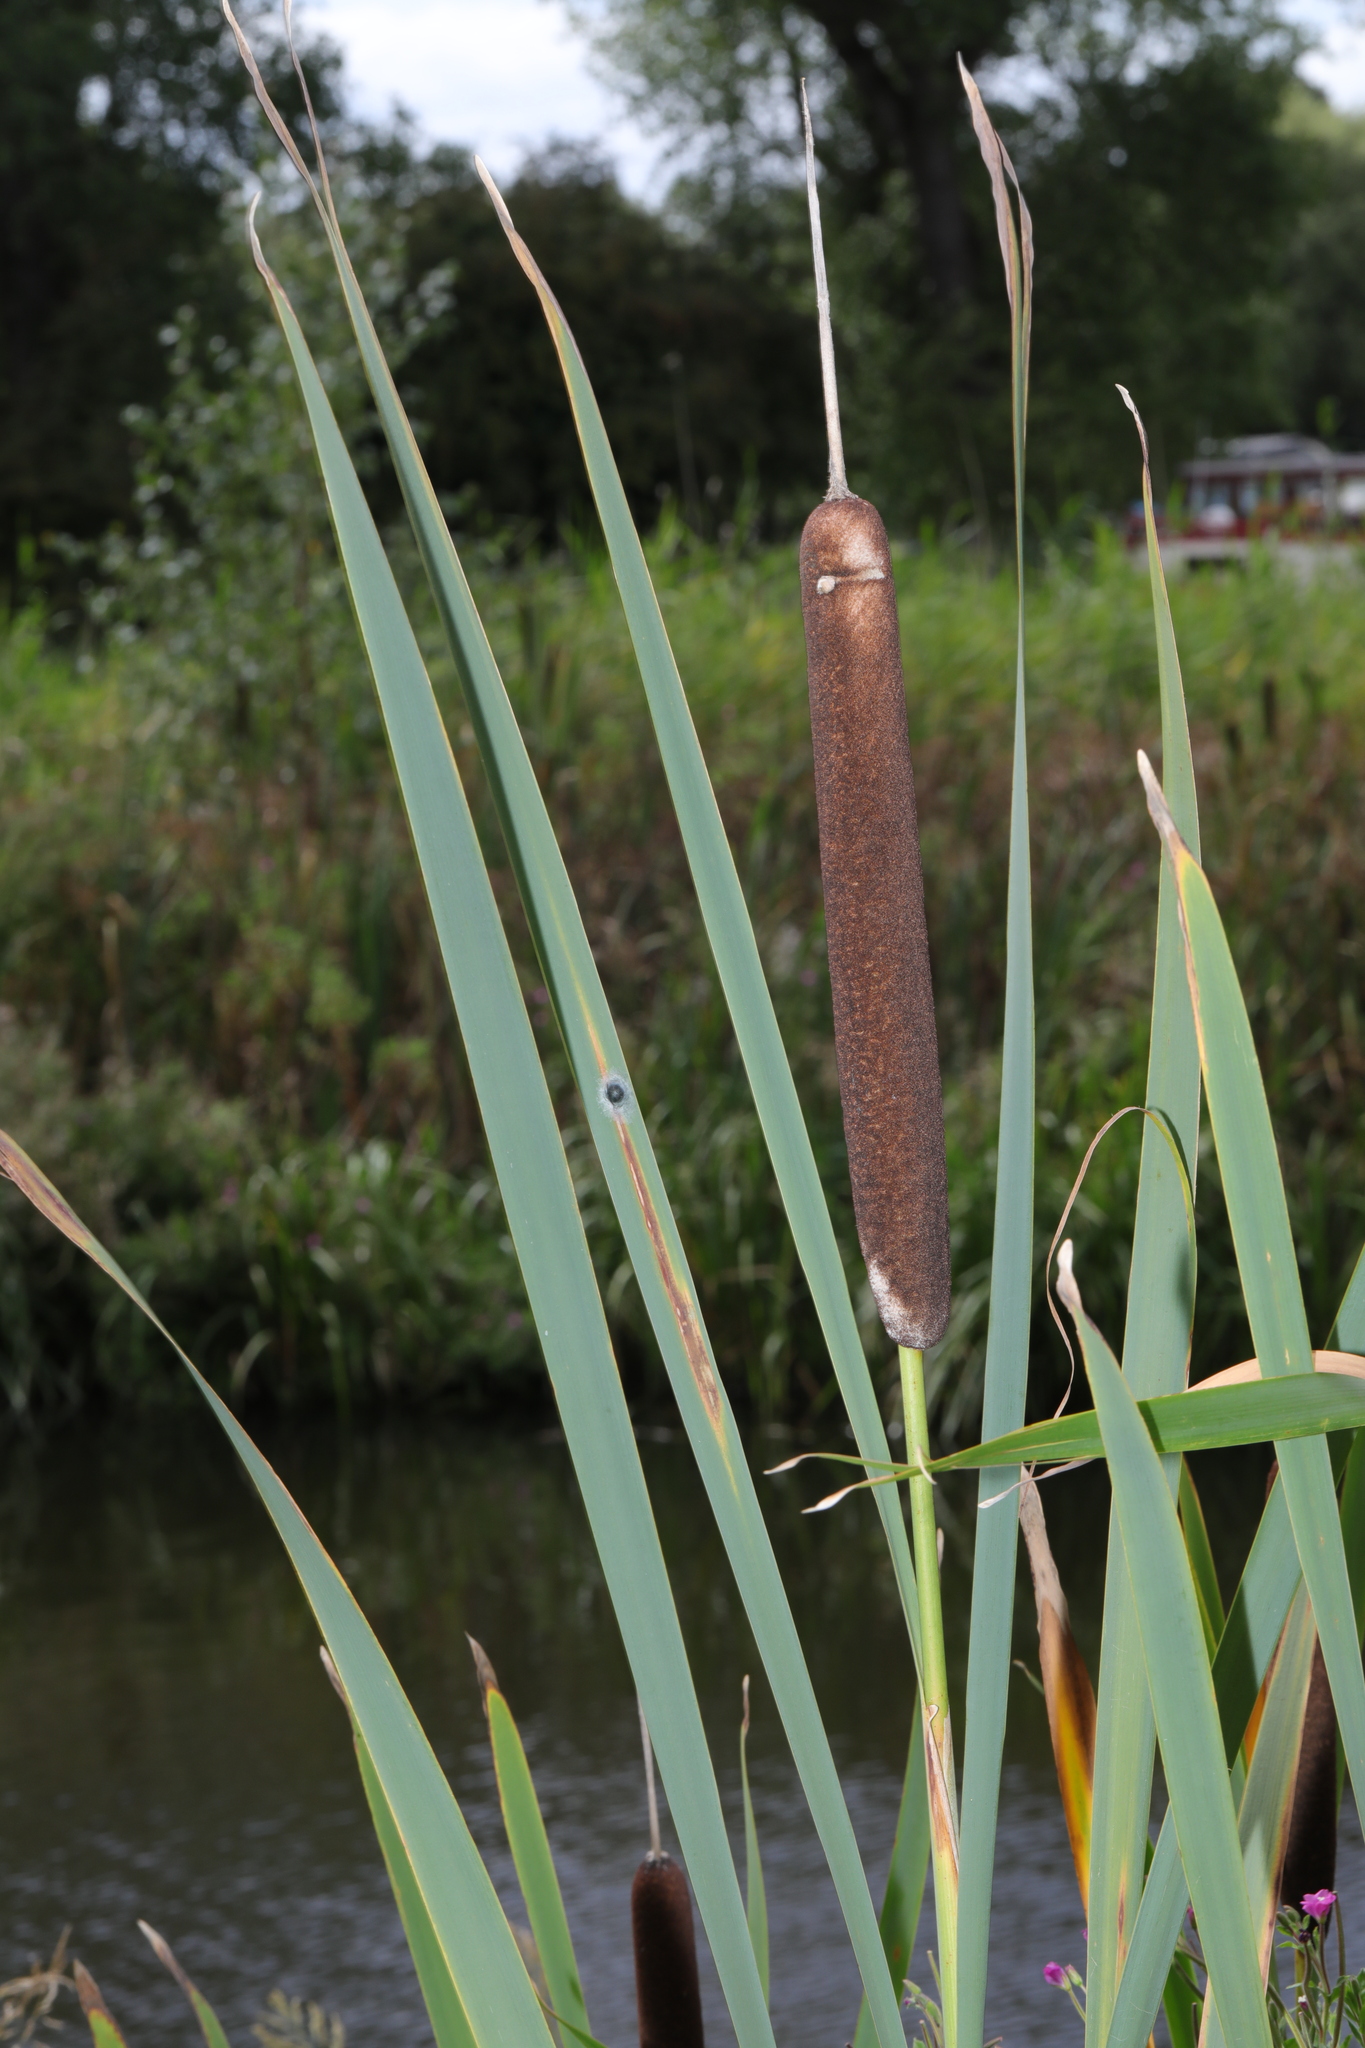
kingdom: Plantae
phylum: Tracheophyta
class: Liliopsida
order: Poales
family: Typhaceae
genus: Typha
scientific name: Typha latifolia
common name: Broadleaf cattail
